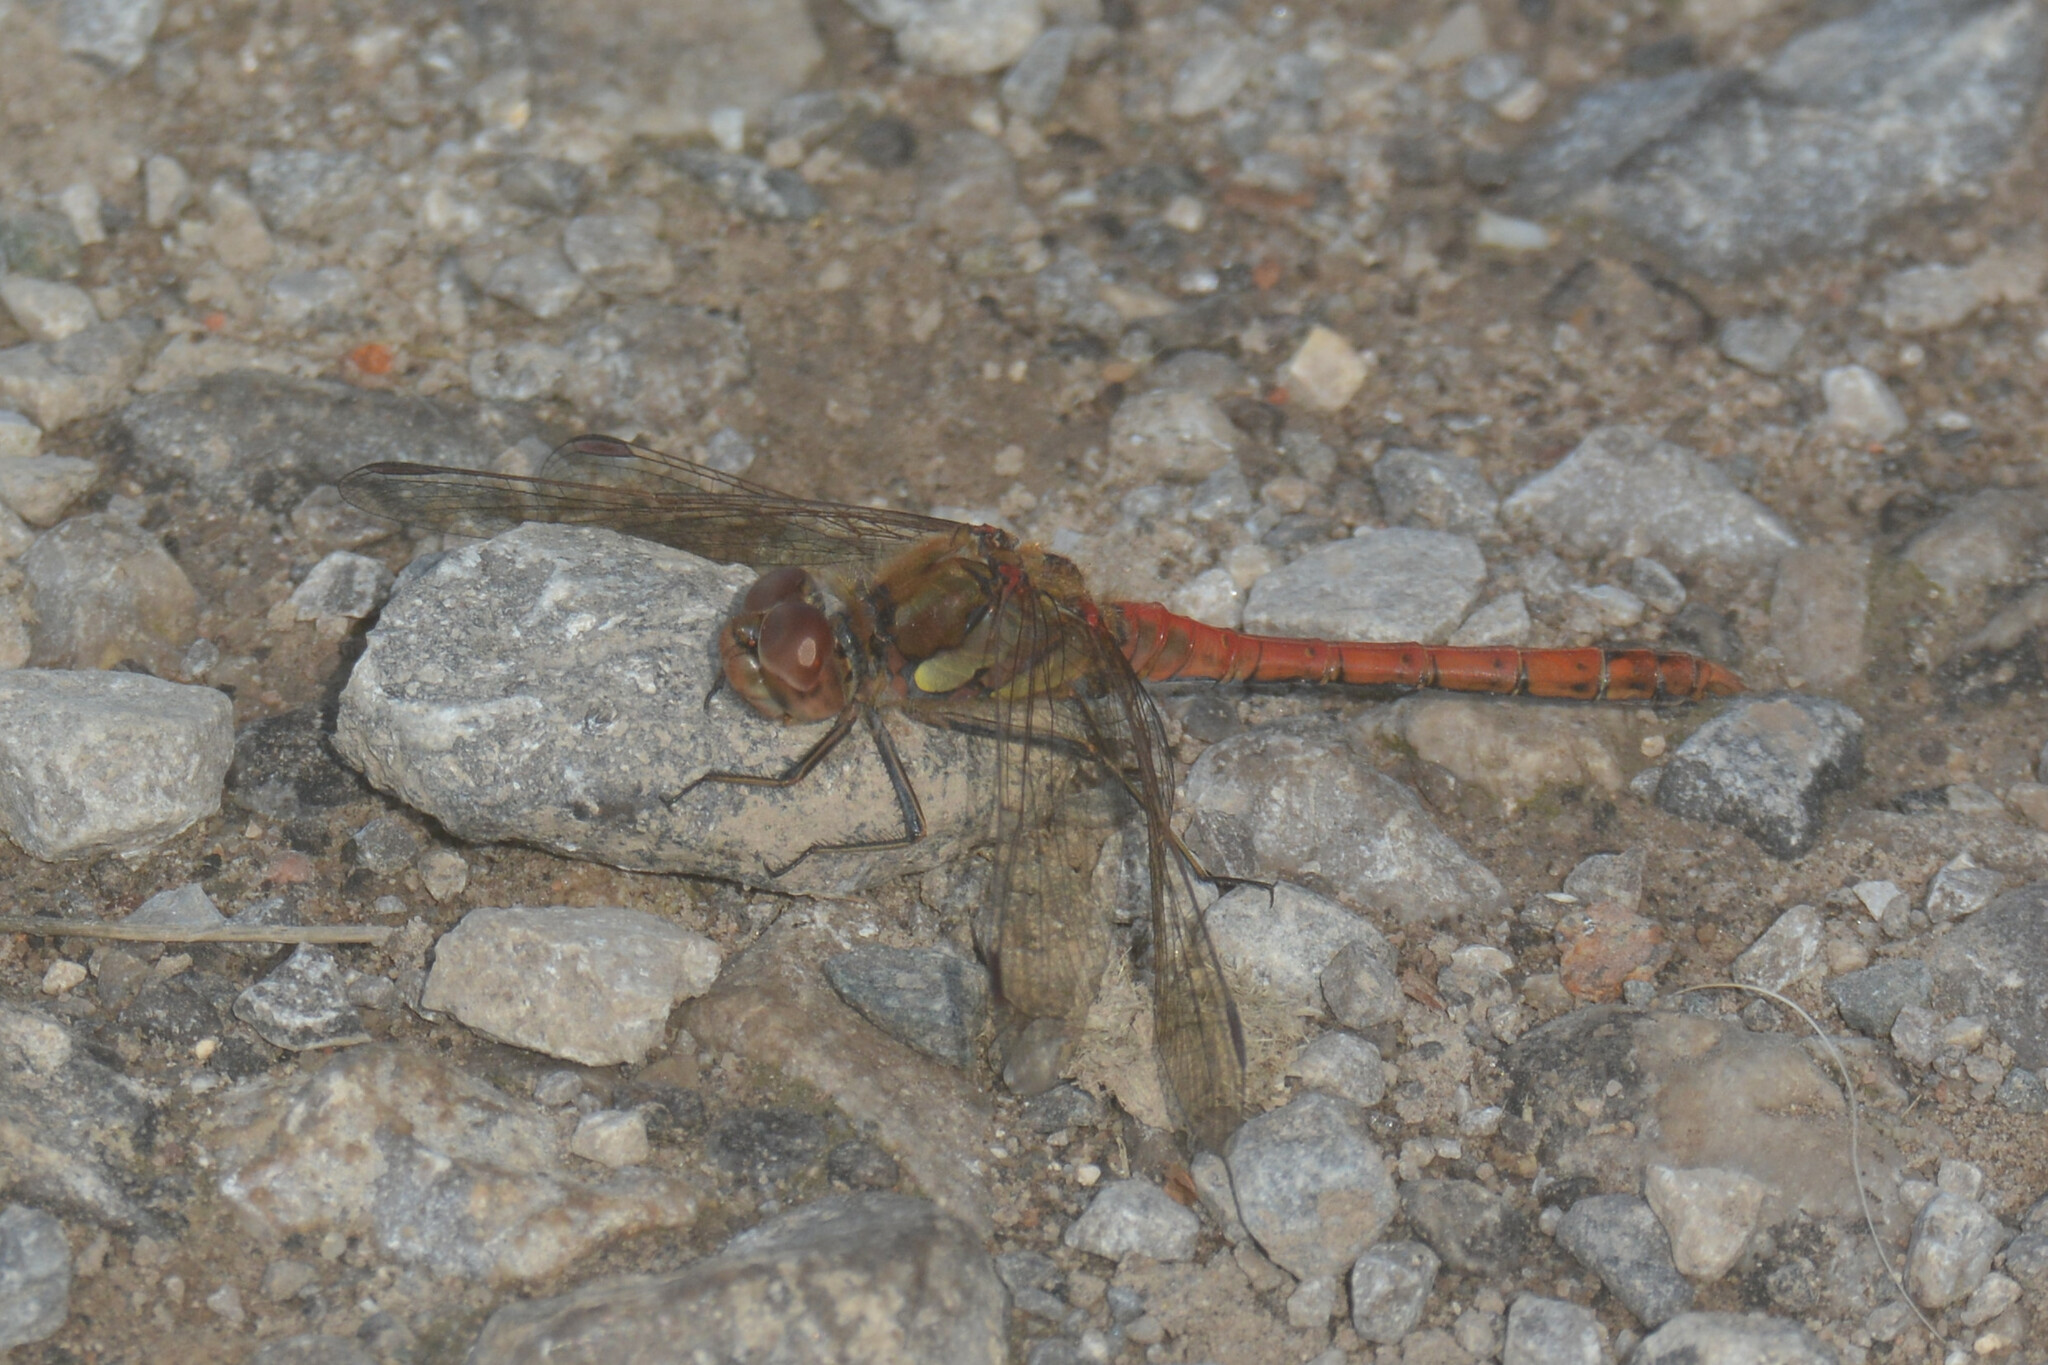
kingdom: Animalia
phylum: Arthropoda
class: Insecta
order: Odonata
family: Libellulidae
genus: Sympetrum
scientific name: Sympetrum striolatum
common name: Common darter
